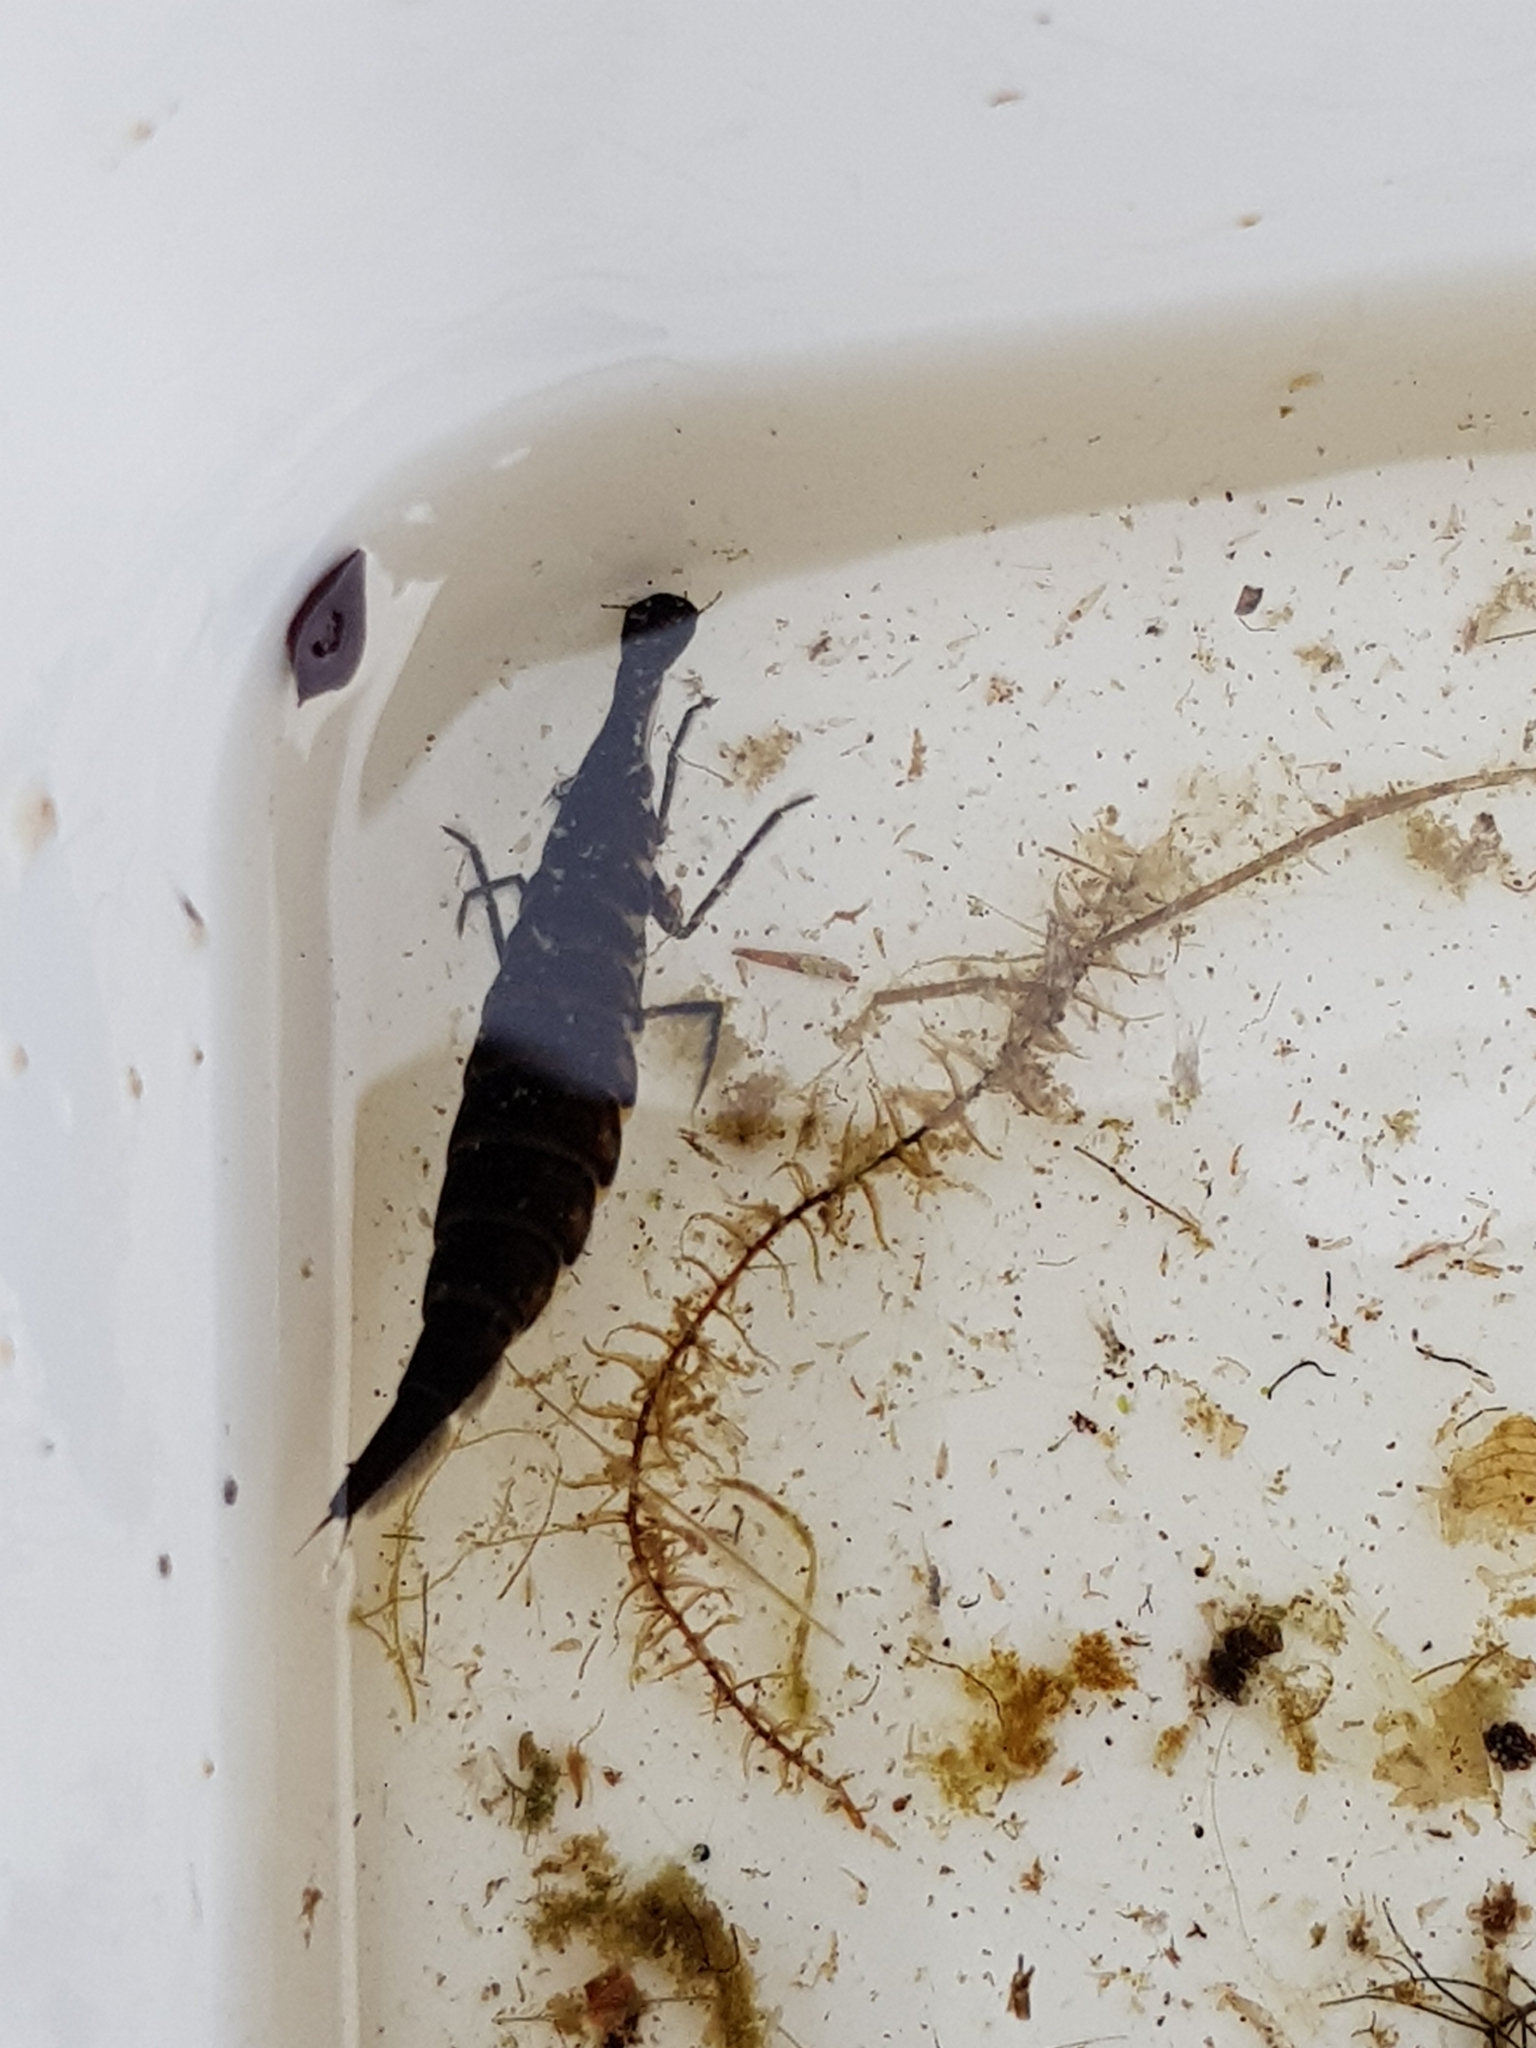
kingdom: Animalia
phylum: Arthropoda
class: Insecta
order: Coleoptera
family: Dytiscidae
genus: Acilius
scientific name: Acilius
